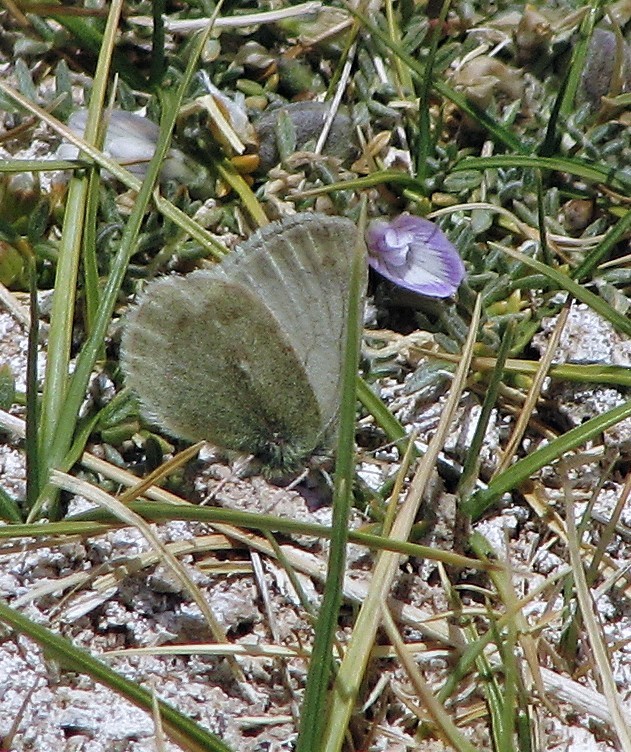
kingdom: Animalia
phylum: Arthropoda
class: Insecta
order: Lepidoptera
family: Pieridae
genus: Colias
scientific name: Colias flaveola
